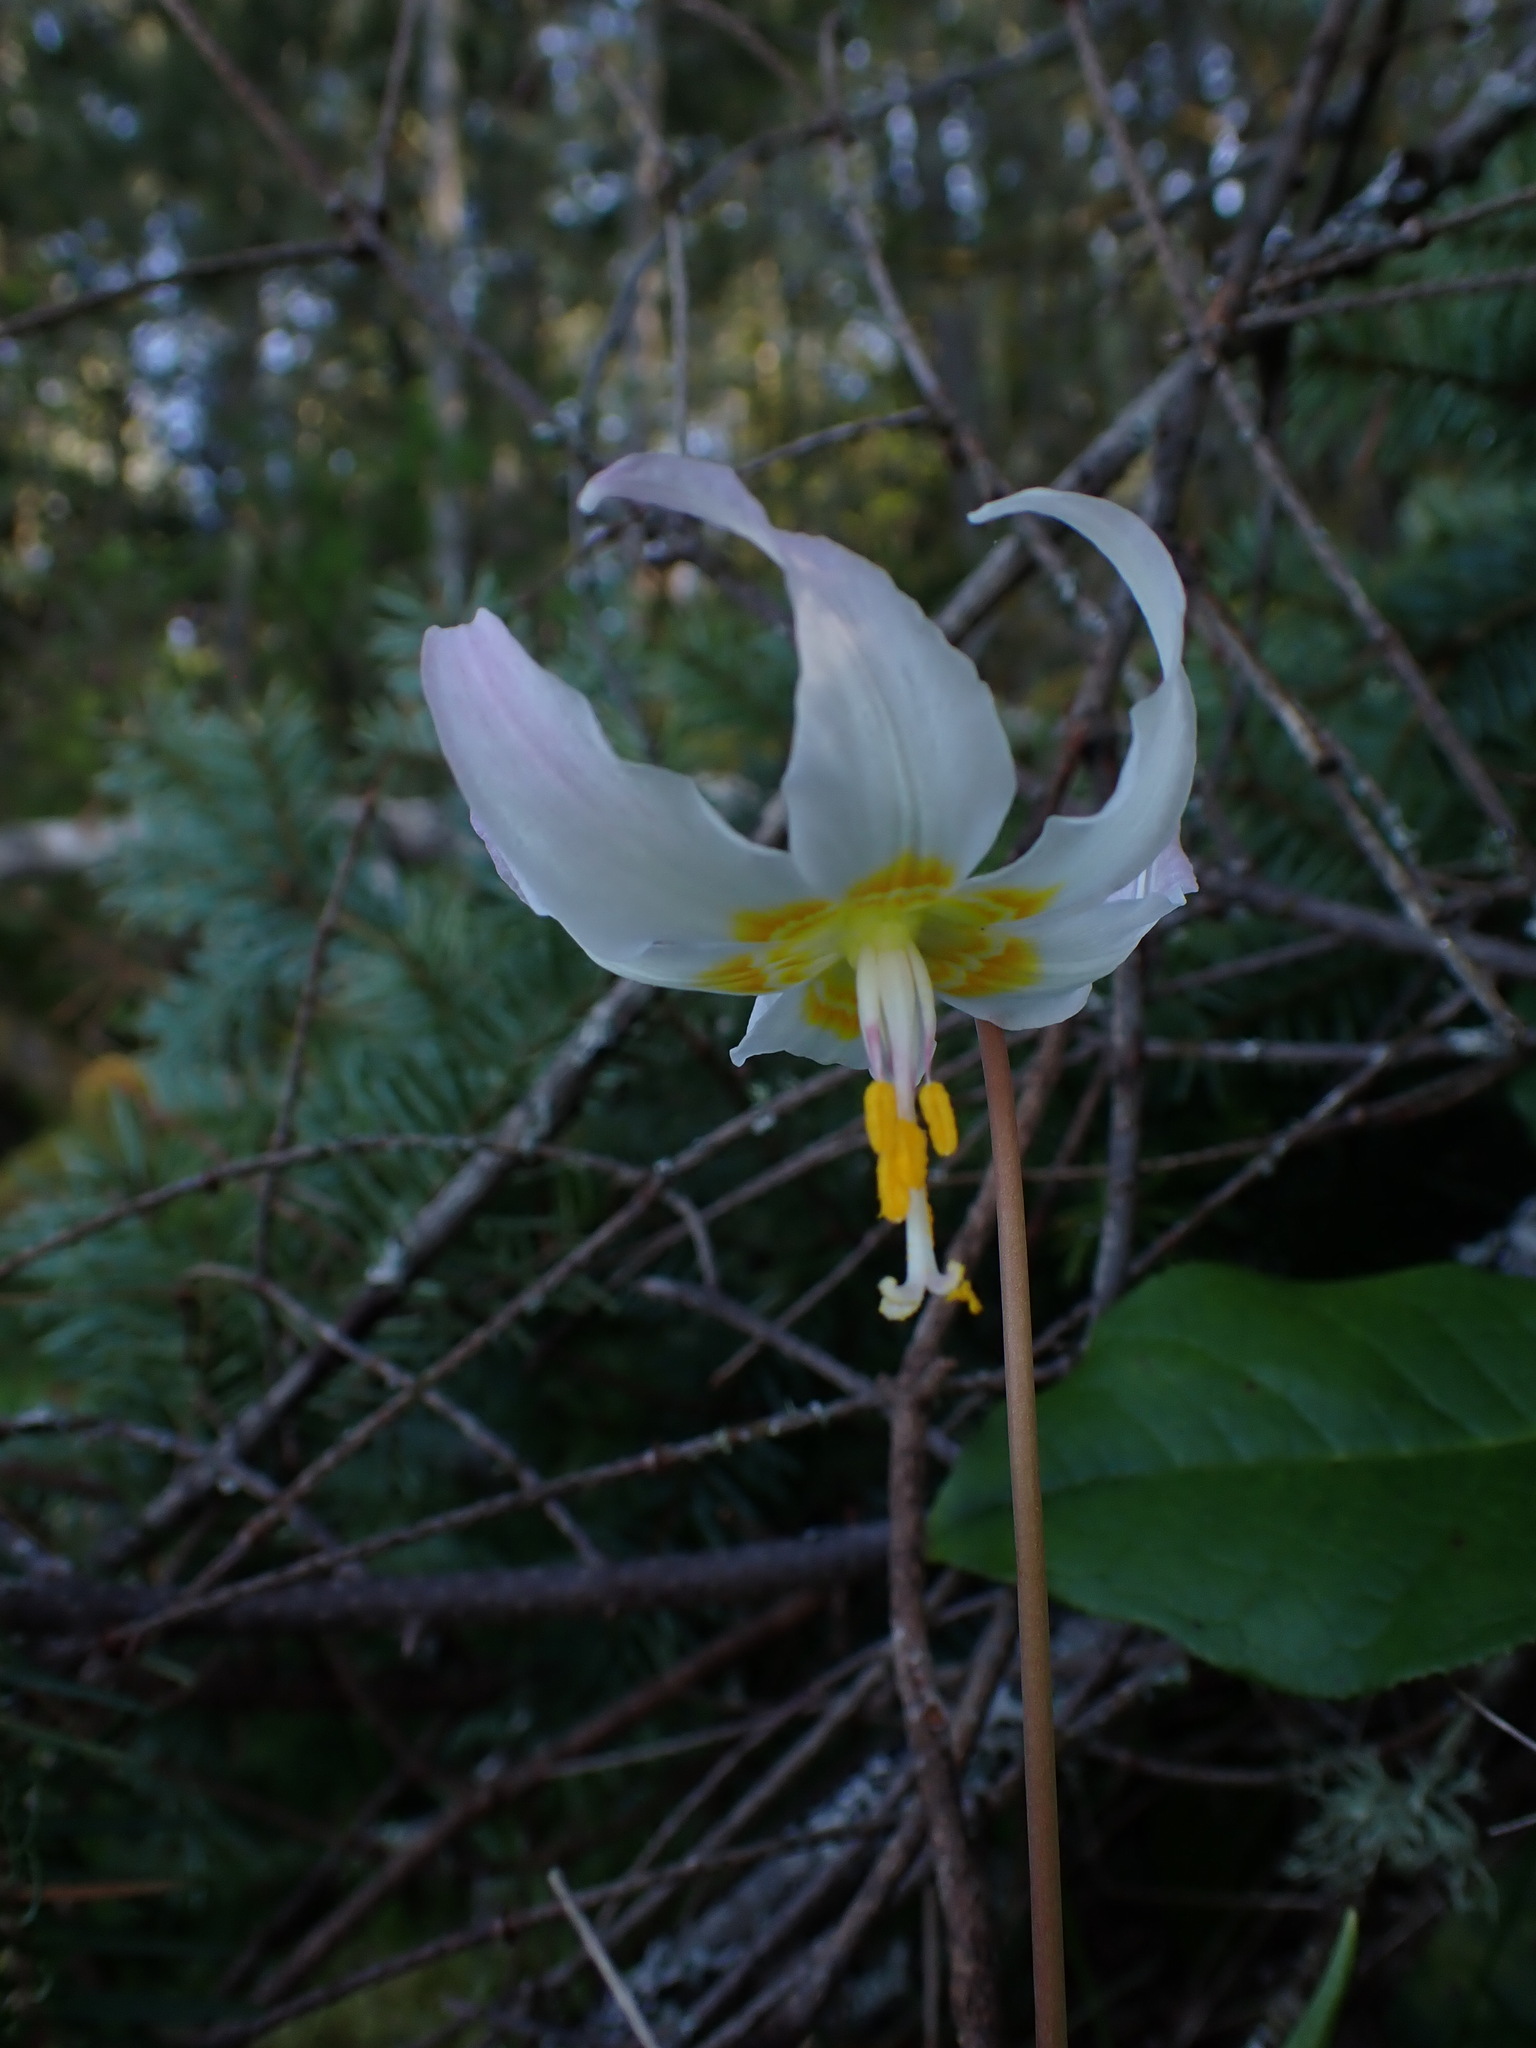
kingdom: Plantae
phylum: Tracheophyta
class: Liliopsida
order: Liliales
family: Liliaceae
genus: Erythronium
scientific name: Erythronium oregonum
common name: Giant adder's-tongue
